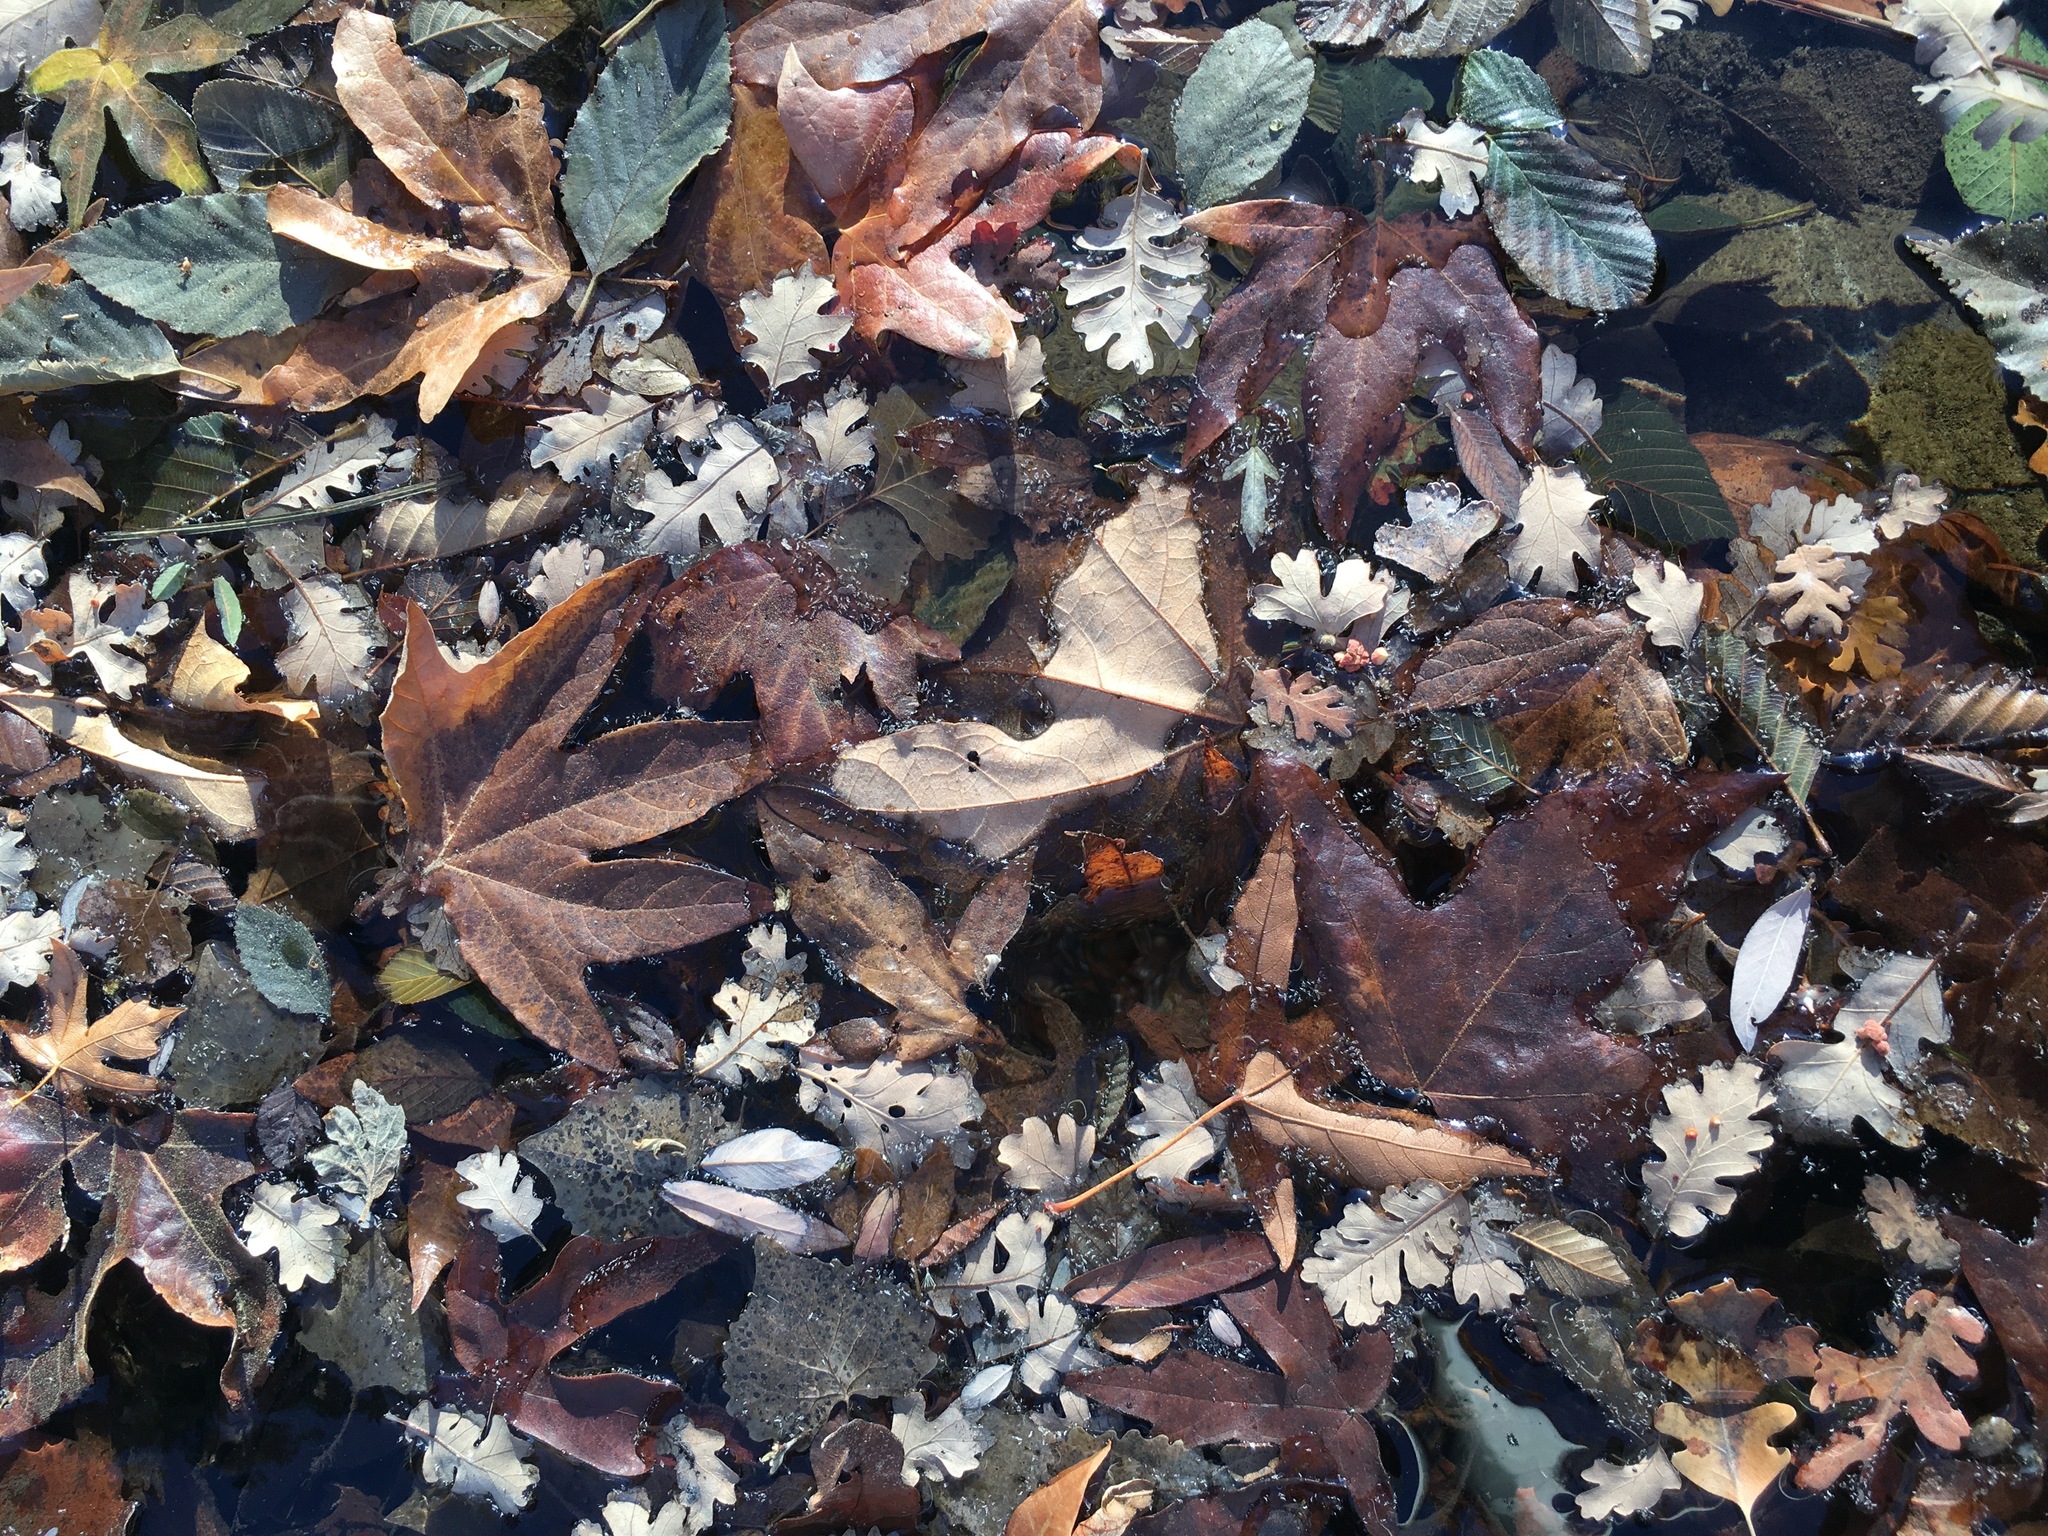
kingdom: Plantae
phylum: Tracheophyta
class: Magnoliopsida
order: Proteales
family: Platanaceae
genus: Platanus
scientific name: Platanus racemosa
